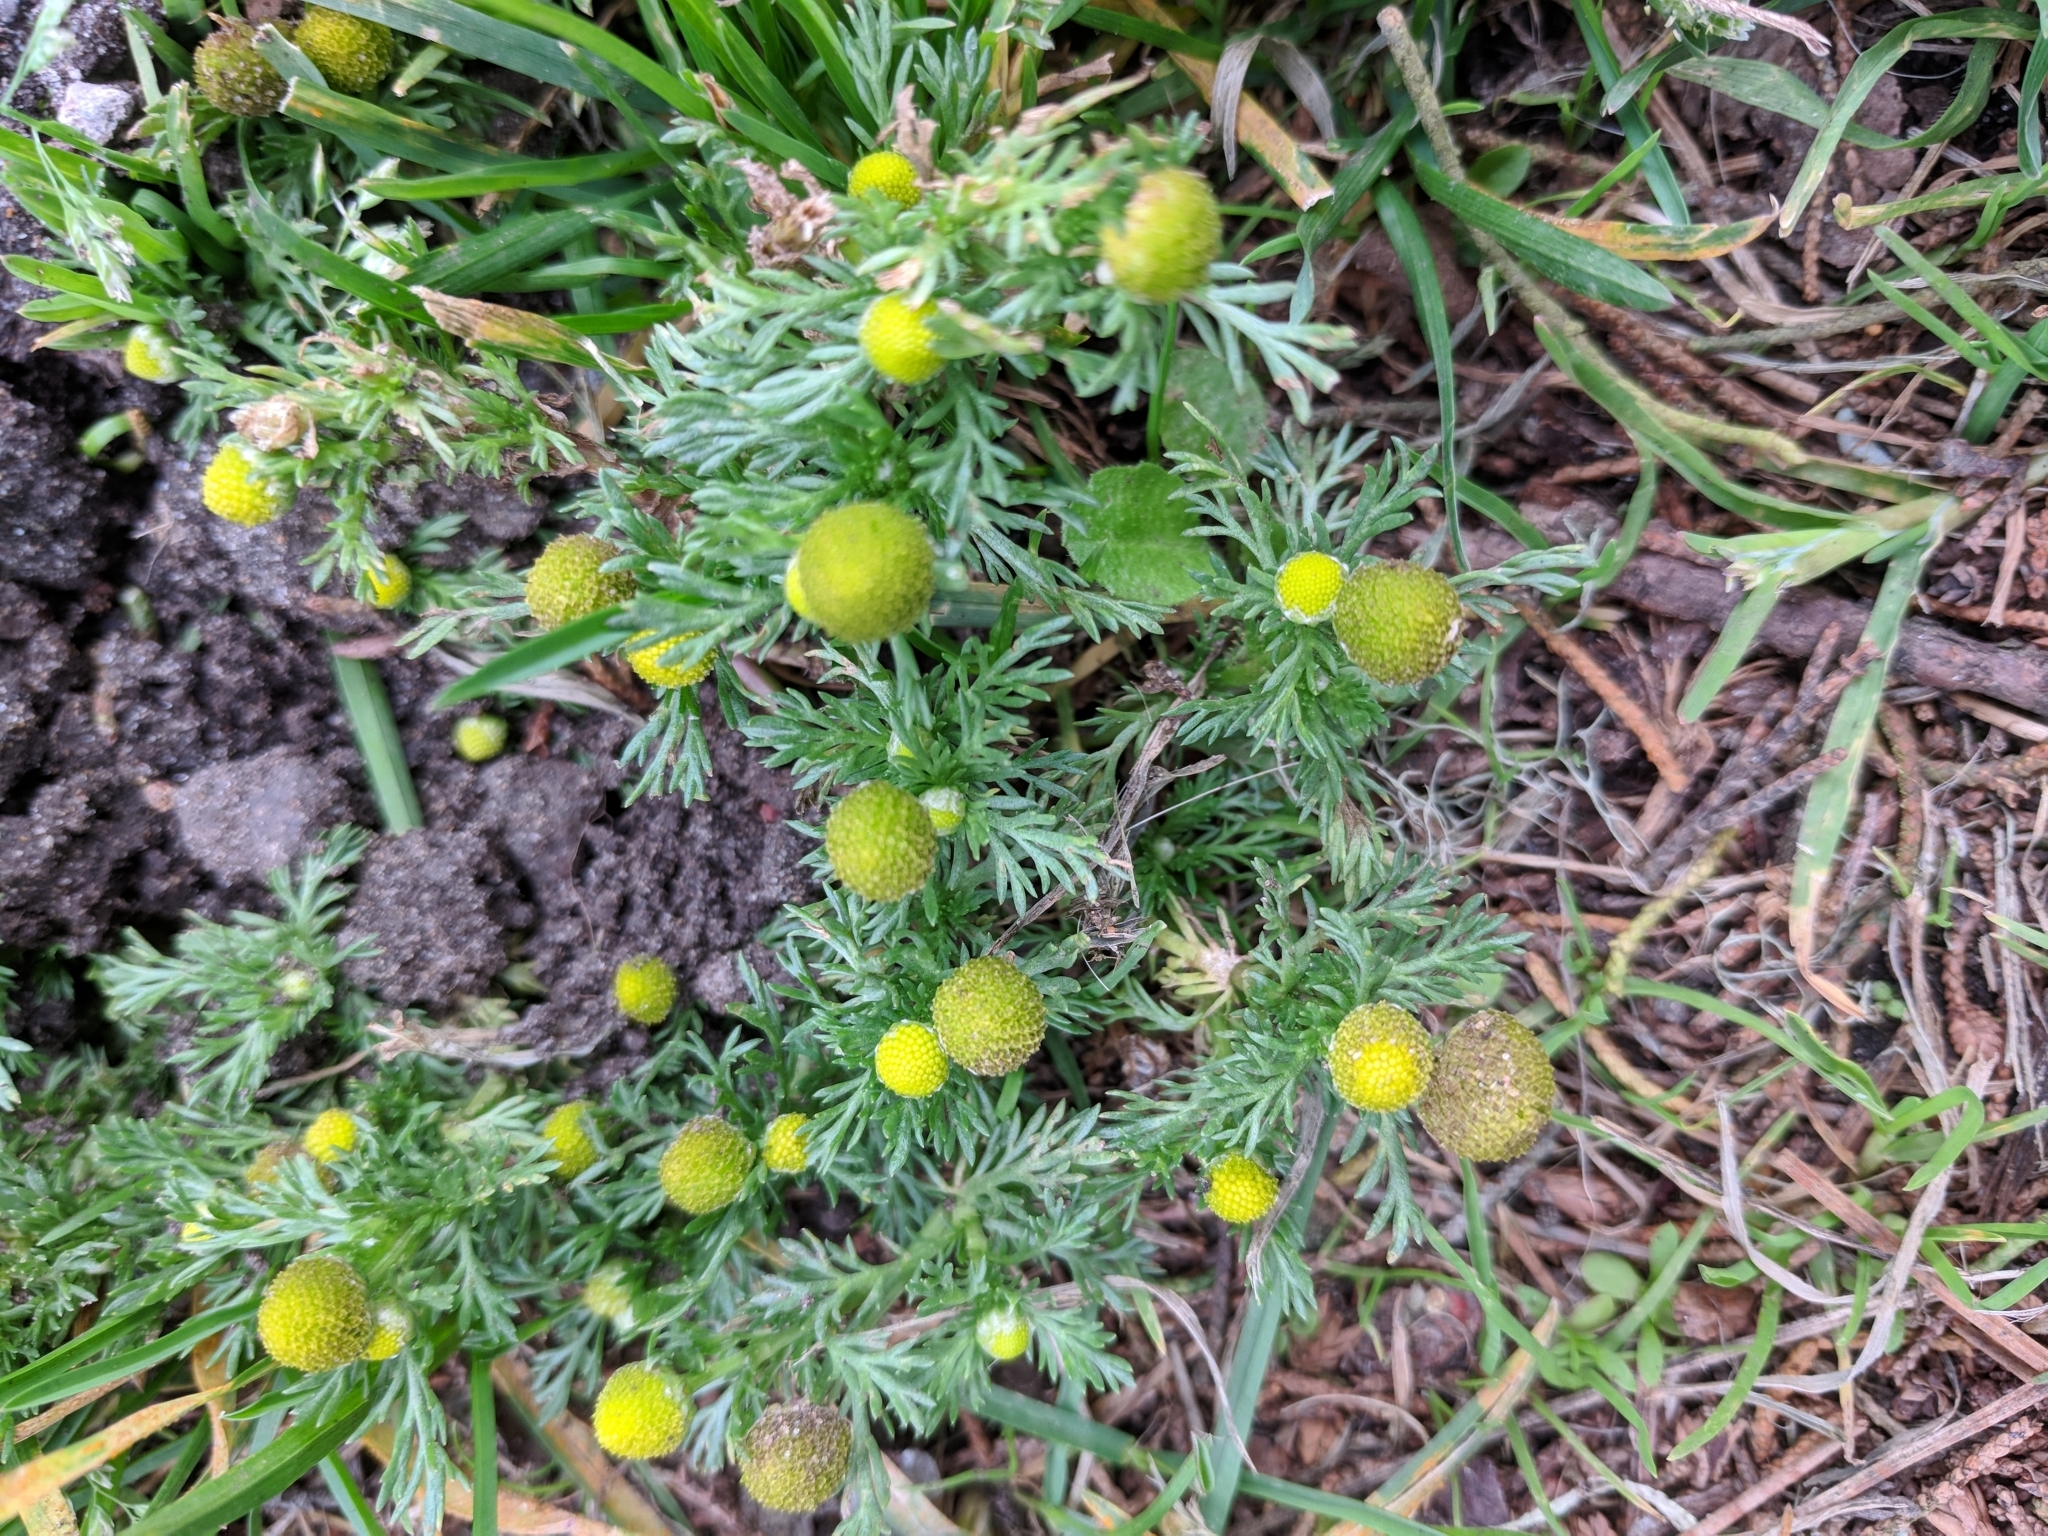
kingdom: Plantae
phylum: Tracheophyta
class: Magnoliopsida
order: Asterales
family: Asteraceae
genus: Matricaria
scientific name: Matricaria discoidea
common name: Disc mayweed
